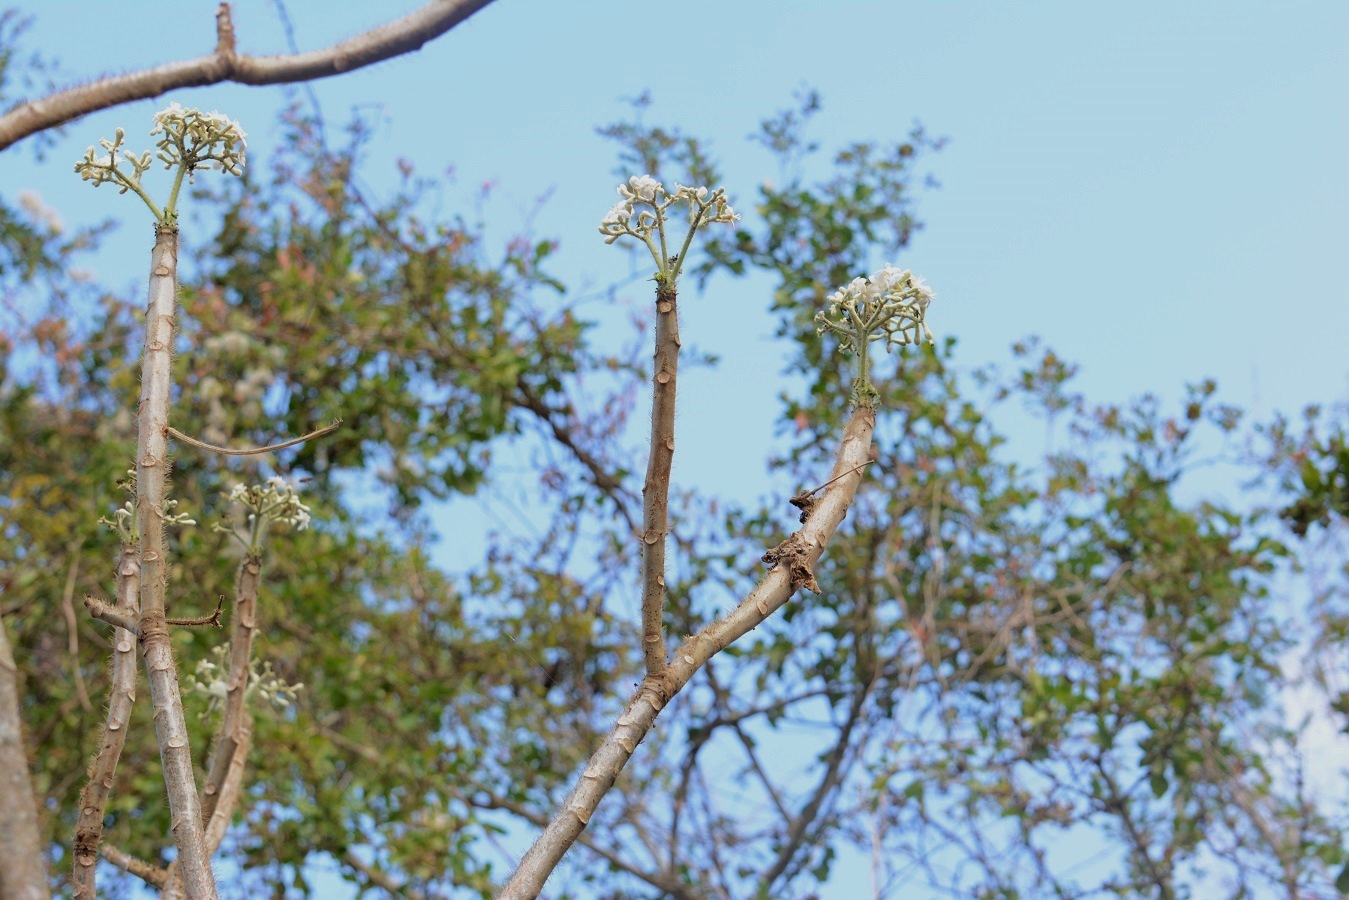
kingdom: Plantae
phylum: Tracheophyta
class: Magnoliopsida
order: Malpighiales
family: Euphorbiaceae
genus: Cnidoscolus
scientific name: Cnidoscolus multilobus
